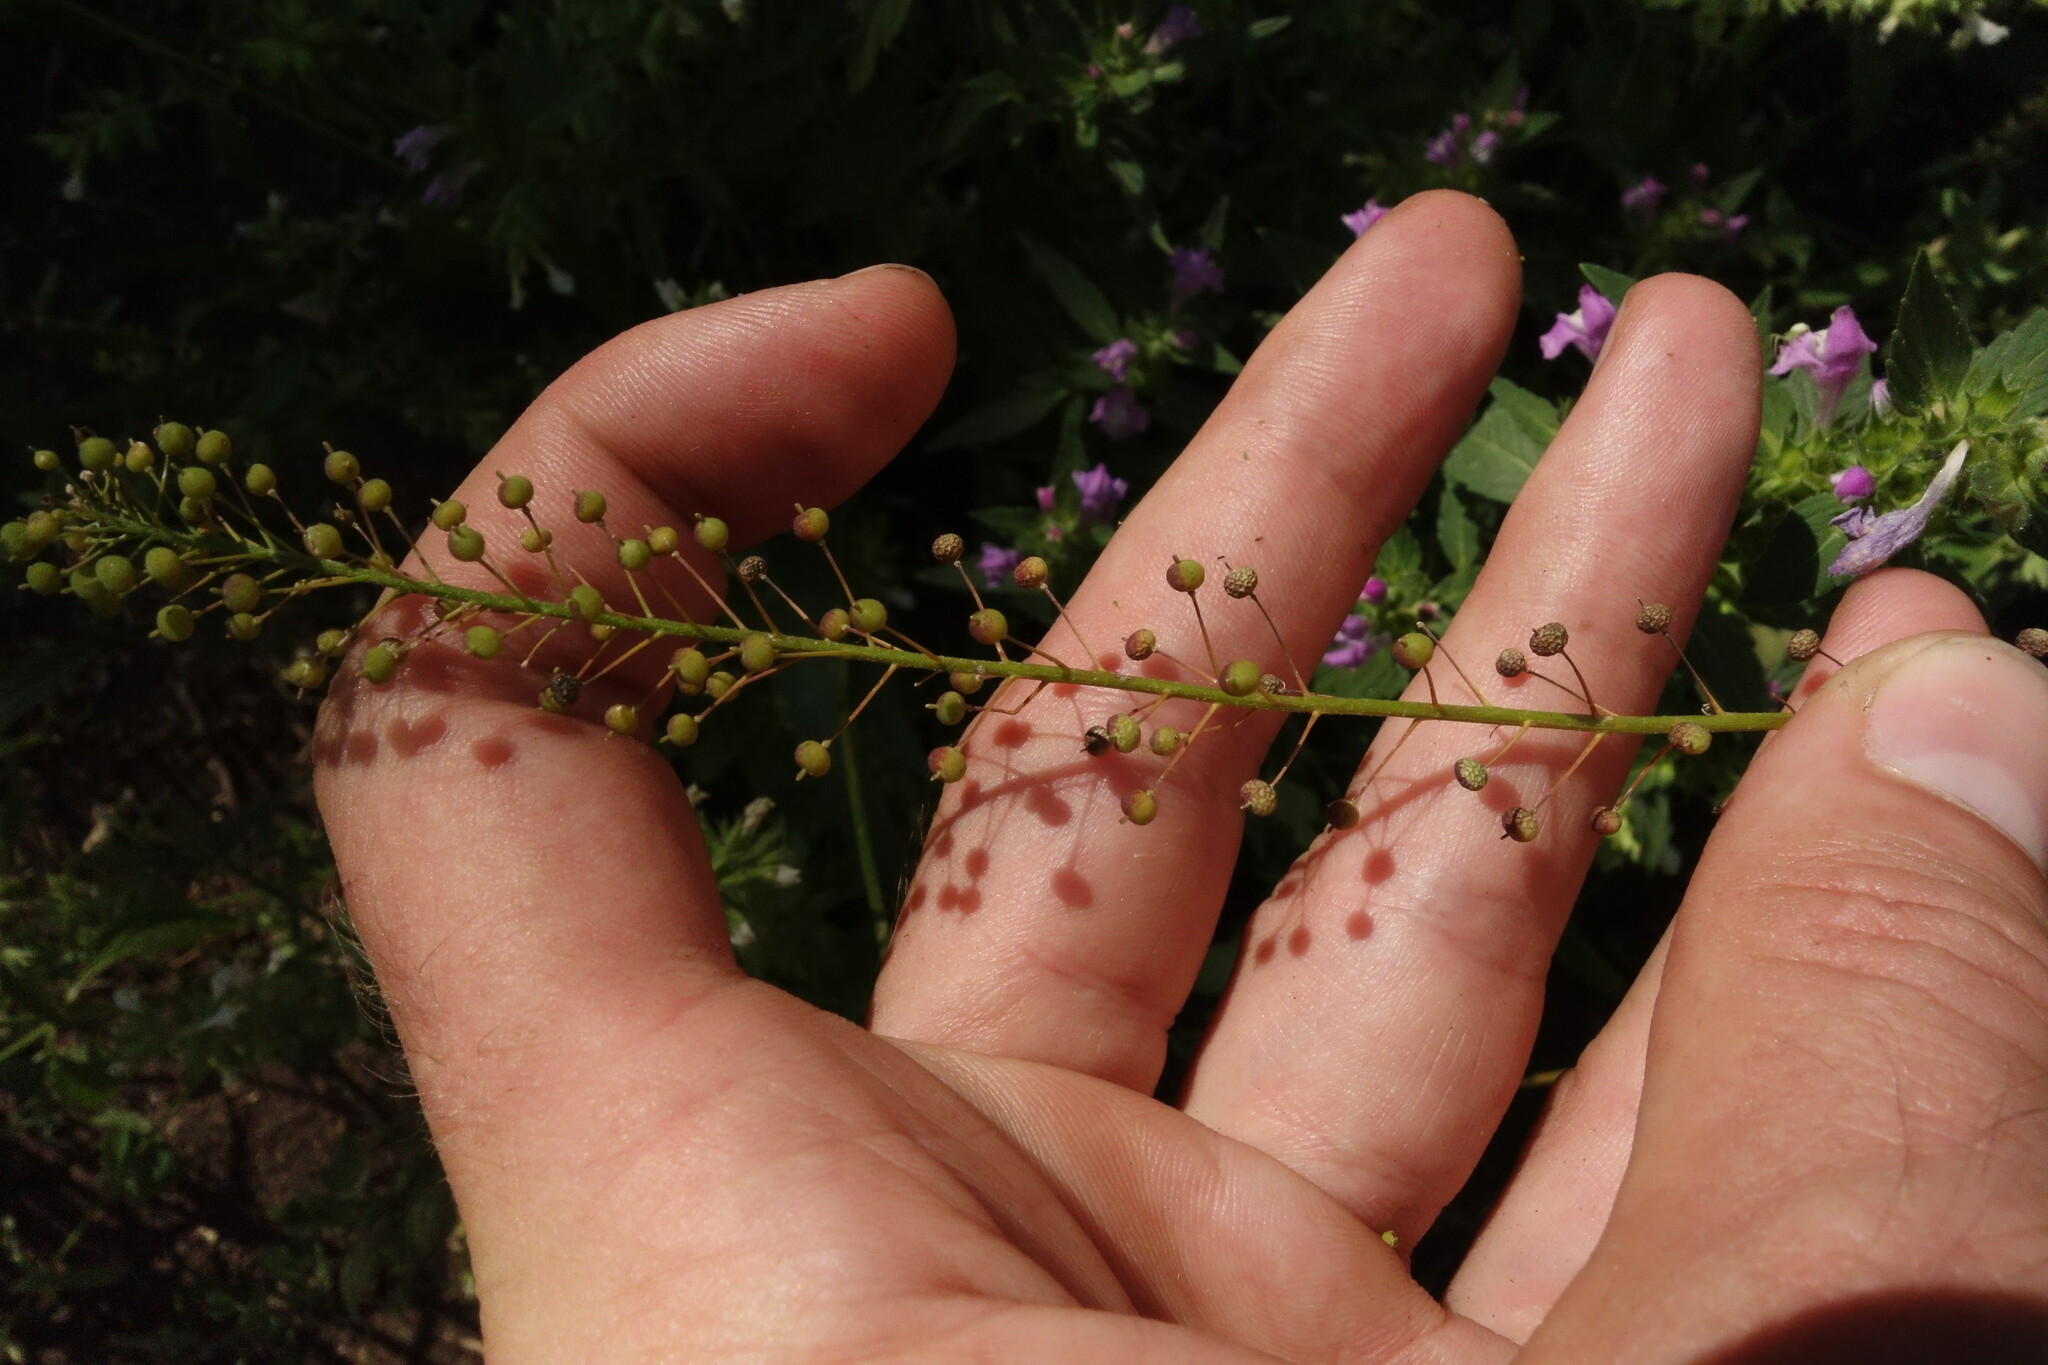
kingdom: Plantae
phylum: Tracheophyta
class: Magnoliopsida
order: Brassicales
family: Brassicaceae
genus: Neslia
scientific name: Neslia paniculata
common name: Ball mustard
